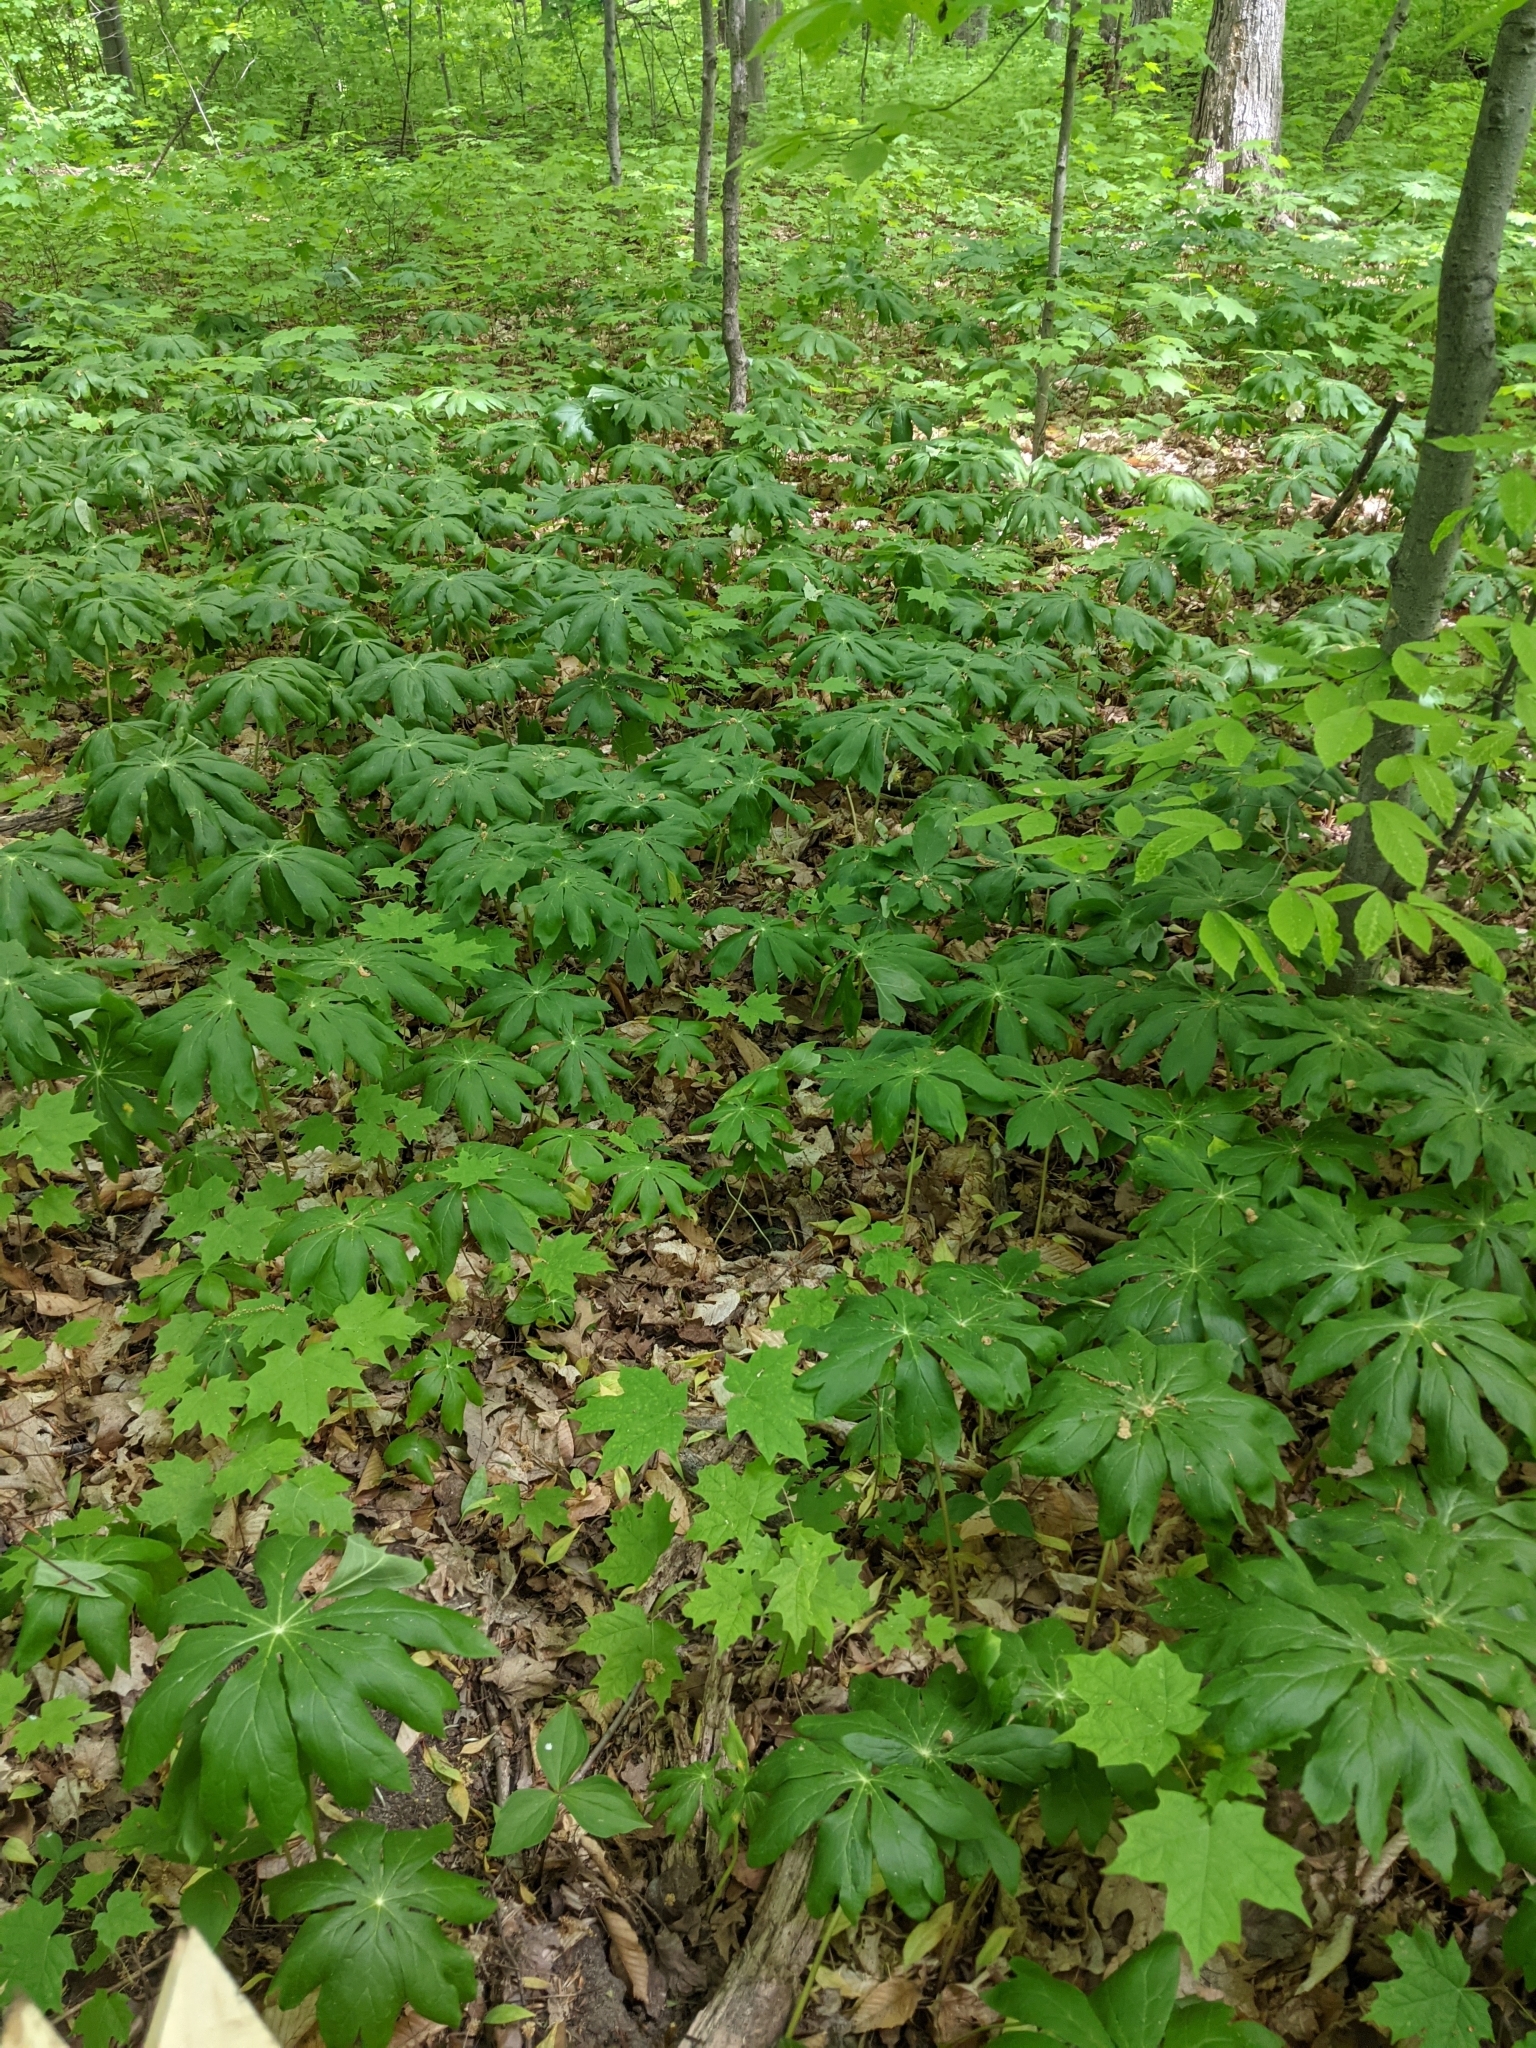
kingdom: Plantae
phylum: Tracheophyta
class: Magnoliopsida
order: Ranunculales
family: Berberidaceae
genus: Podophyllum
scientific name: Podophyllum peltatum
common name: Wild mandrake
